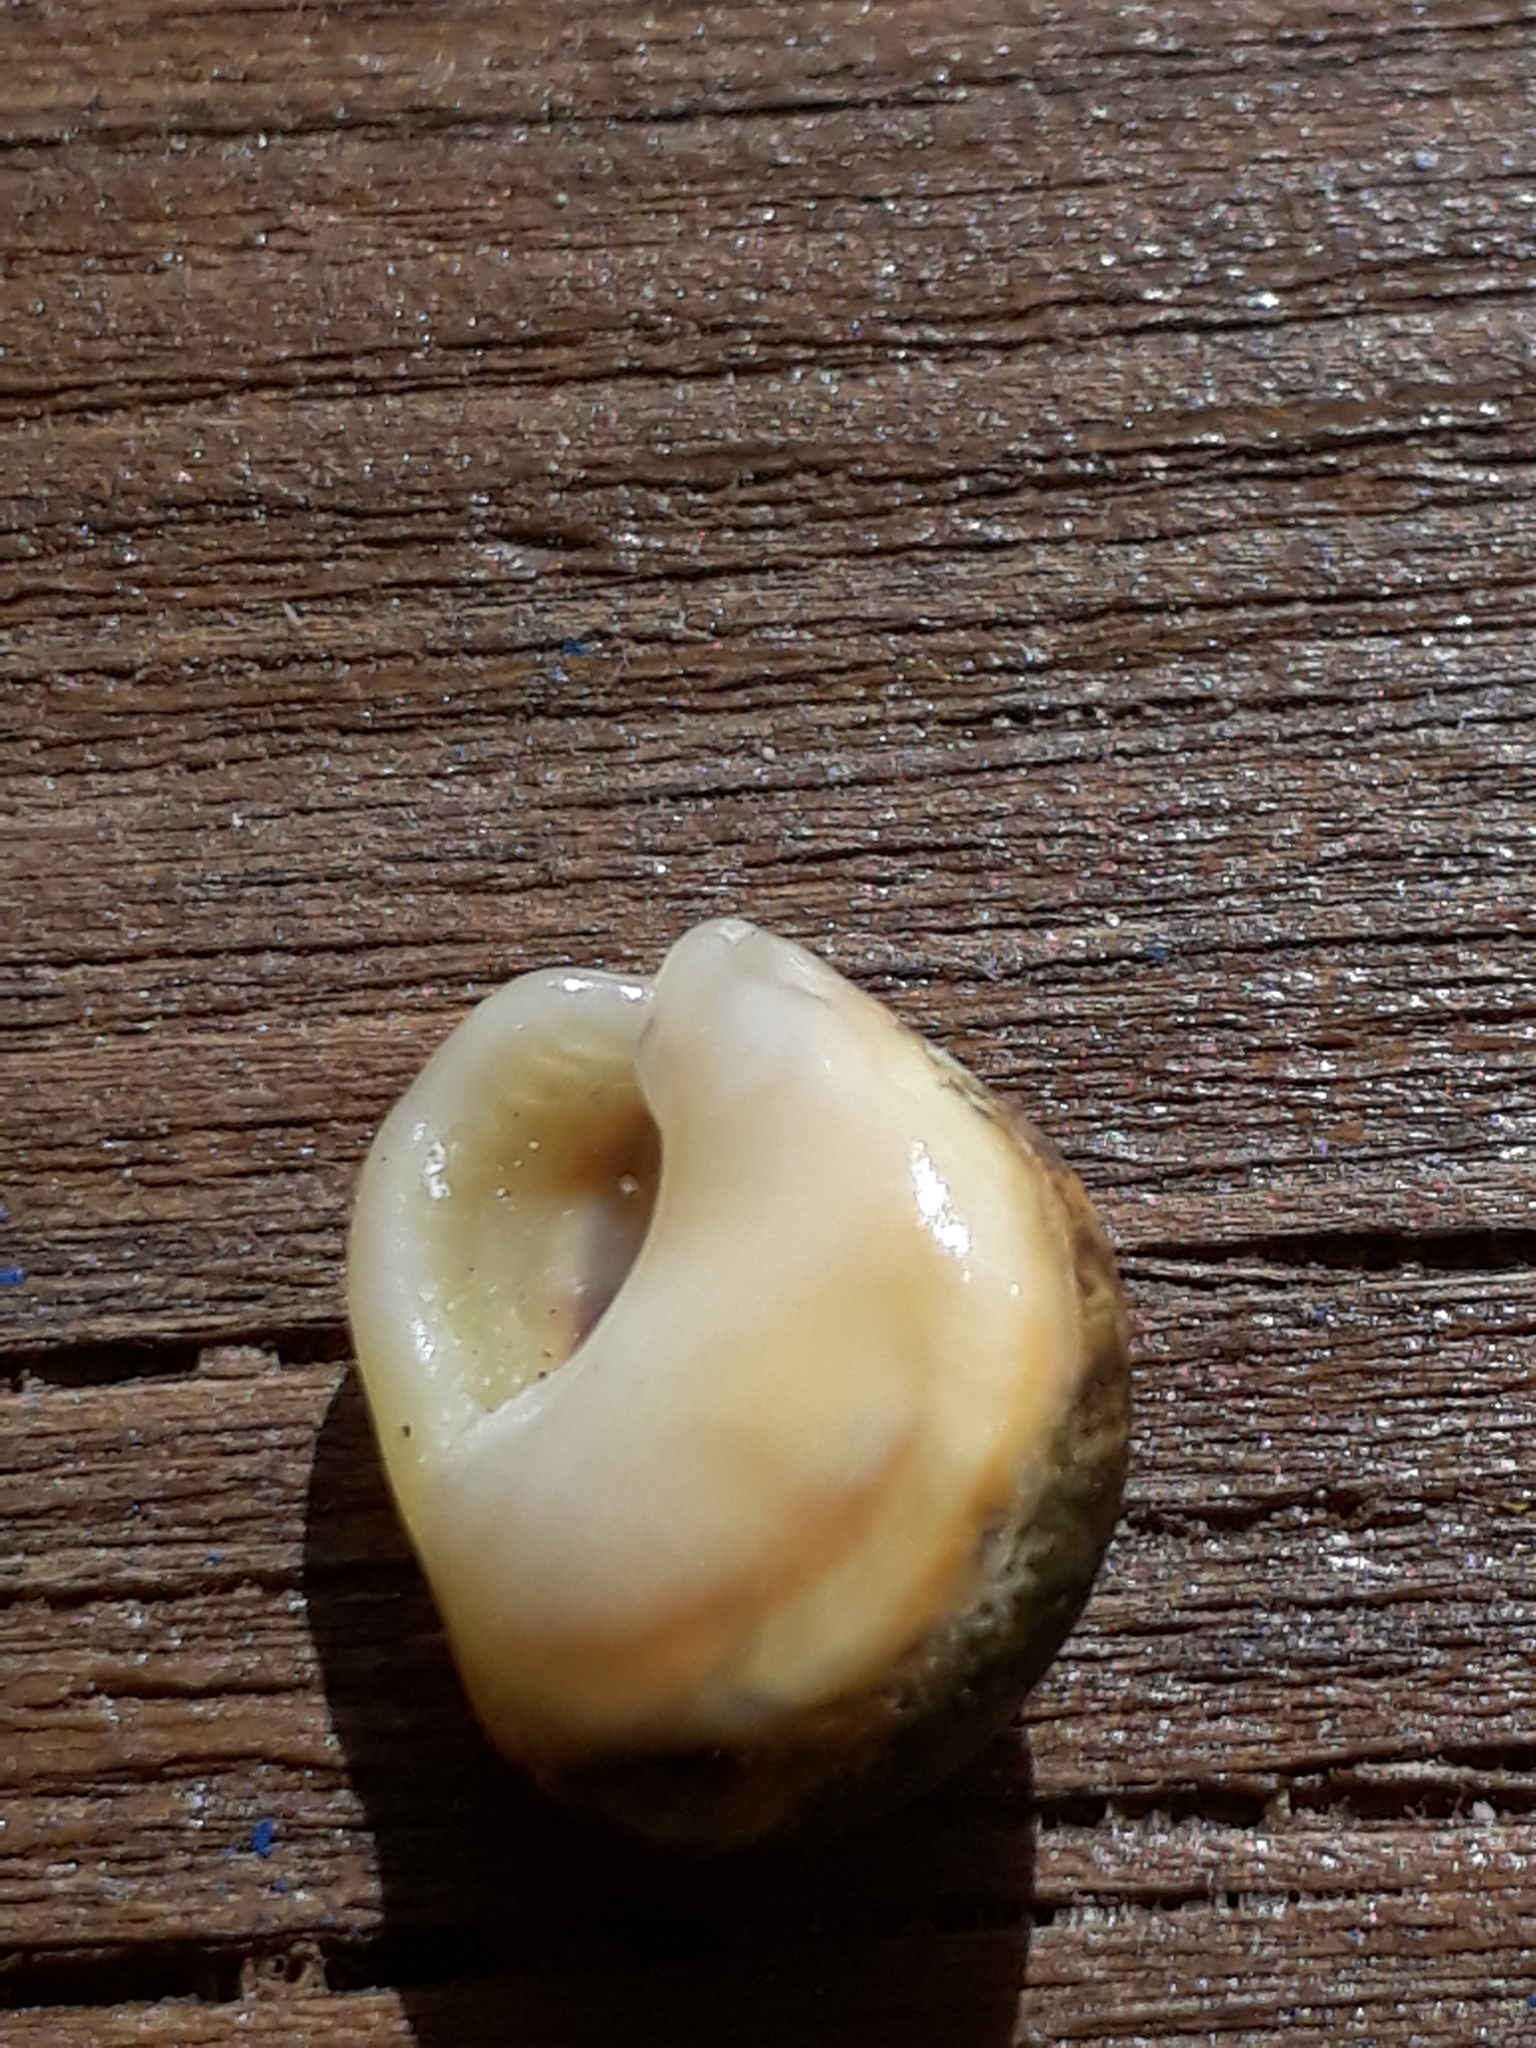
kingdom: Animalia
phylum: Mollusca
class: Gastropoda
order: Neogastropoda
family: Nassariidae
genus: Tritia
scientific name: Tritia neritea
